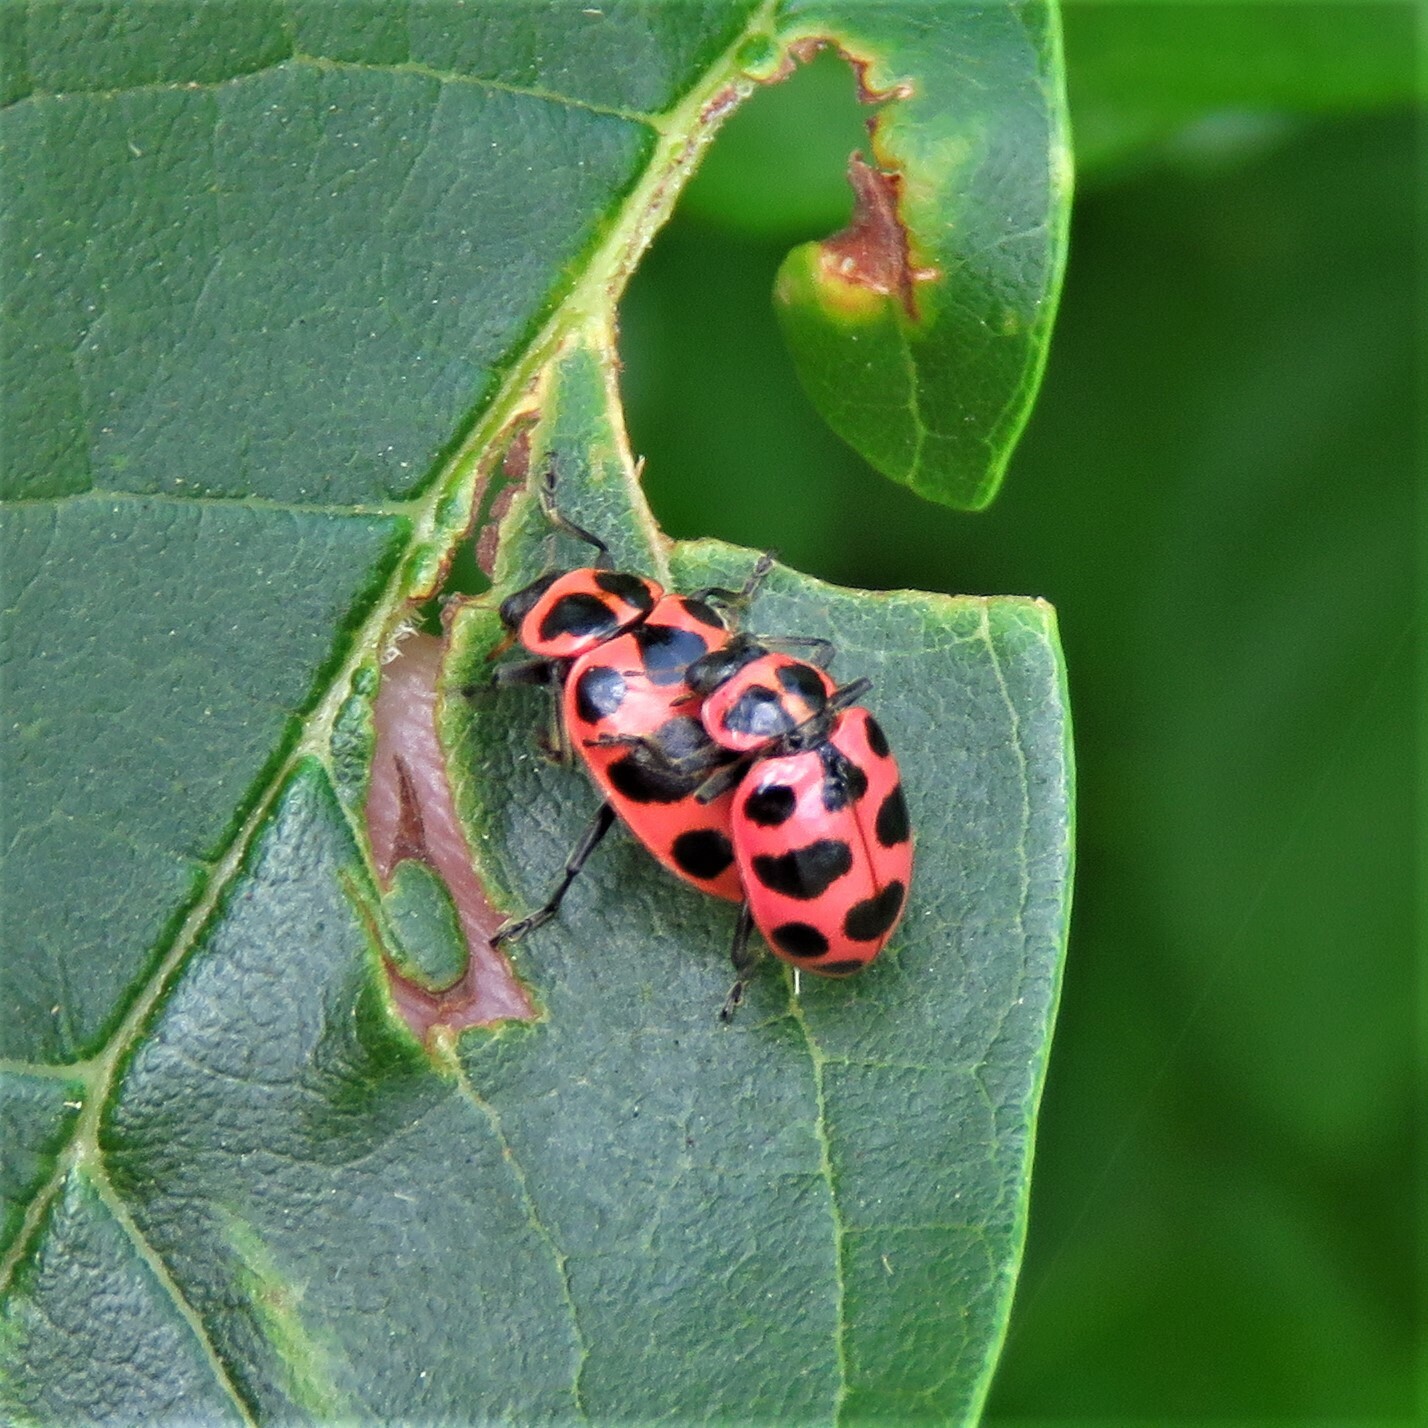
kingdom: Animalia
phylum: Arthropoda
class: Insecta
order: Coleoptera
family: Coccinellidae
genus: Coleomegilla
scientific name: Coleomegilla maculata
